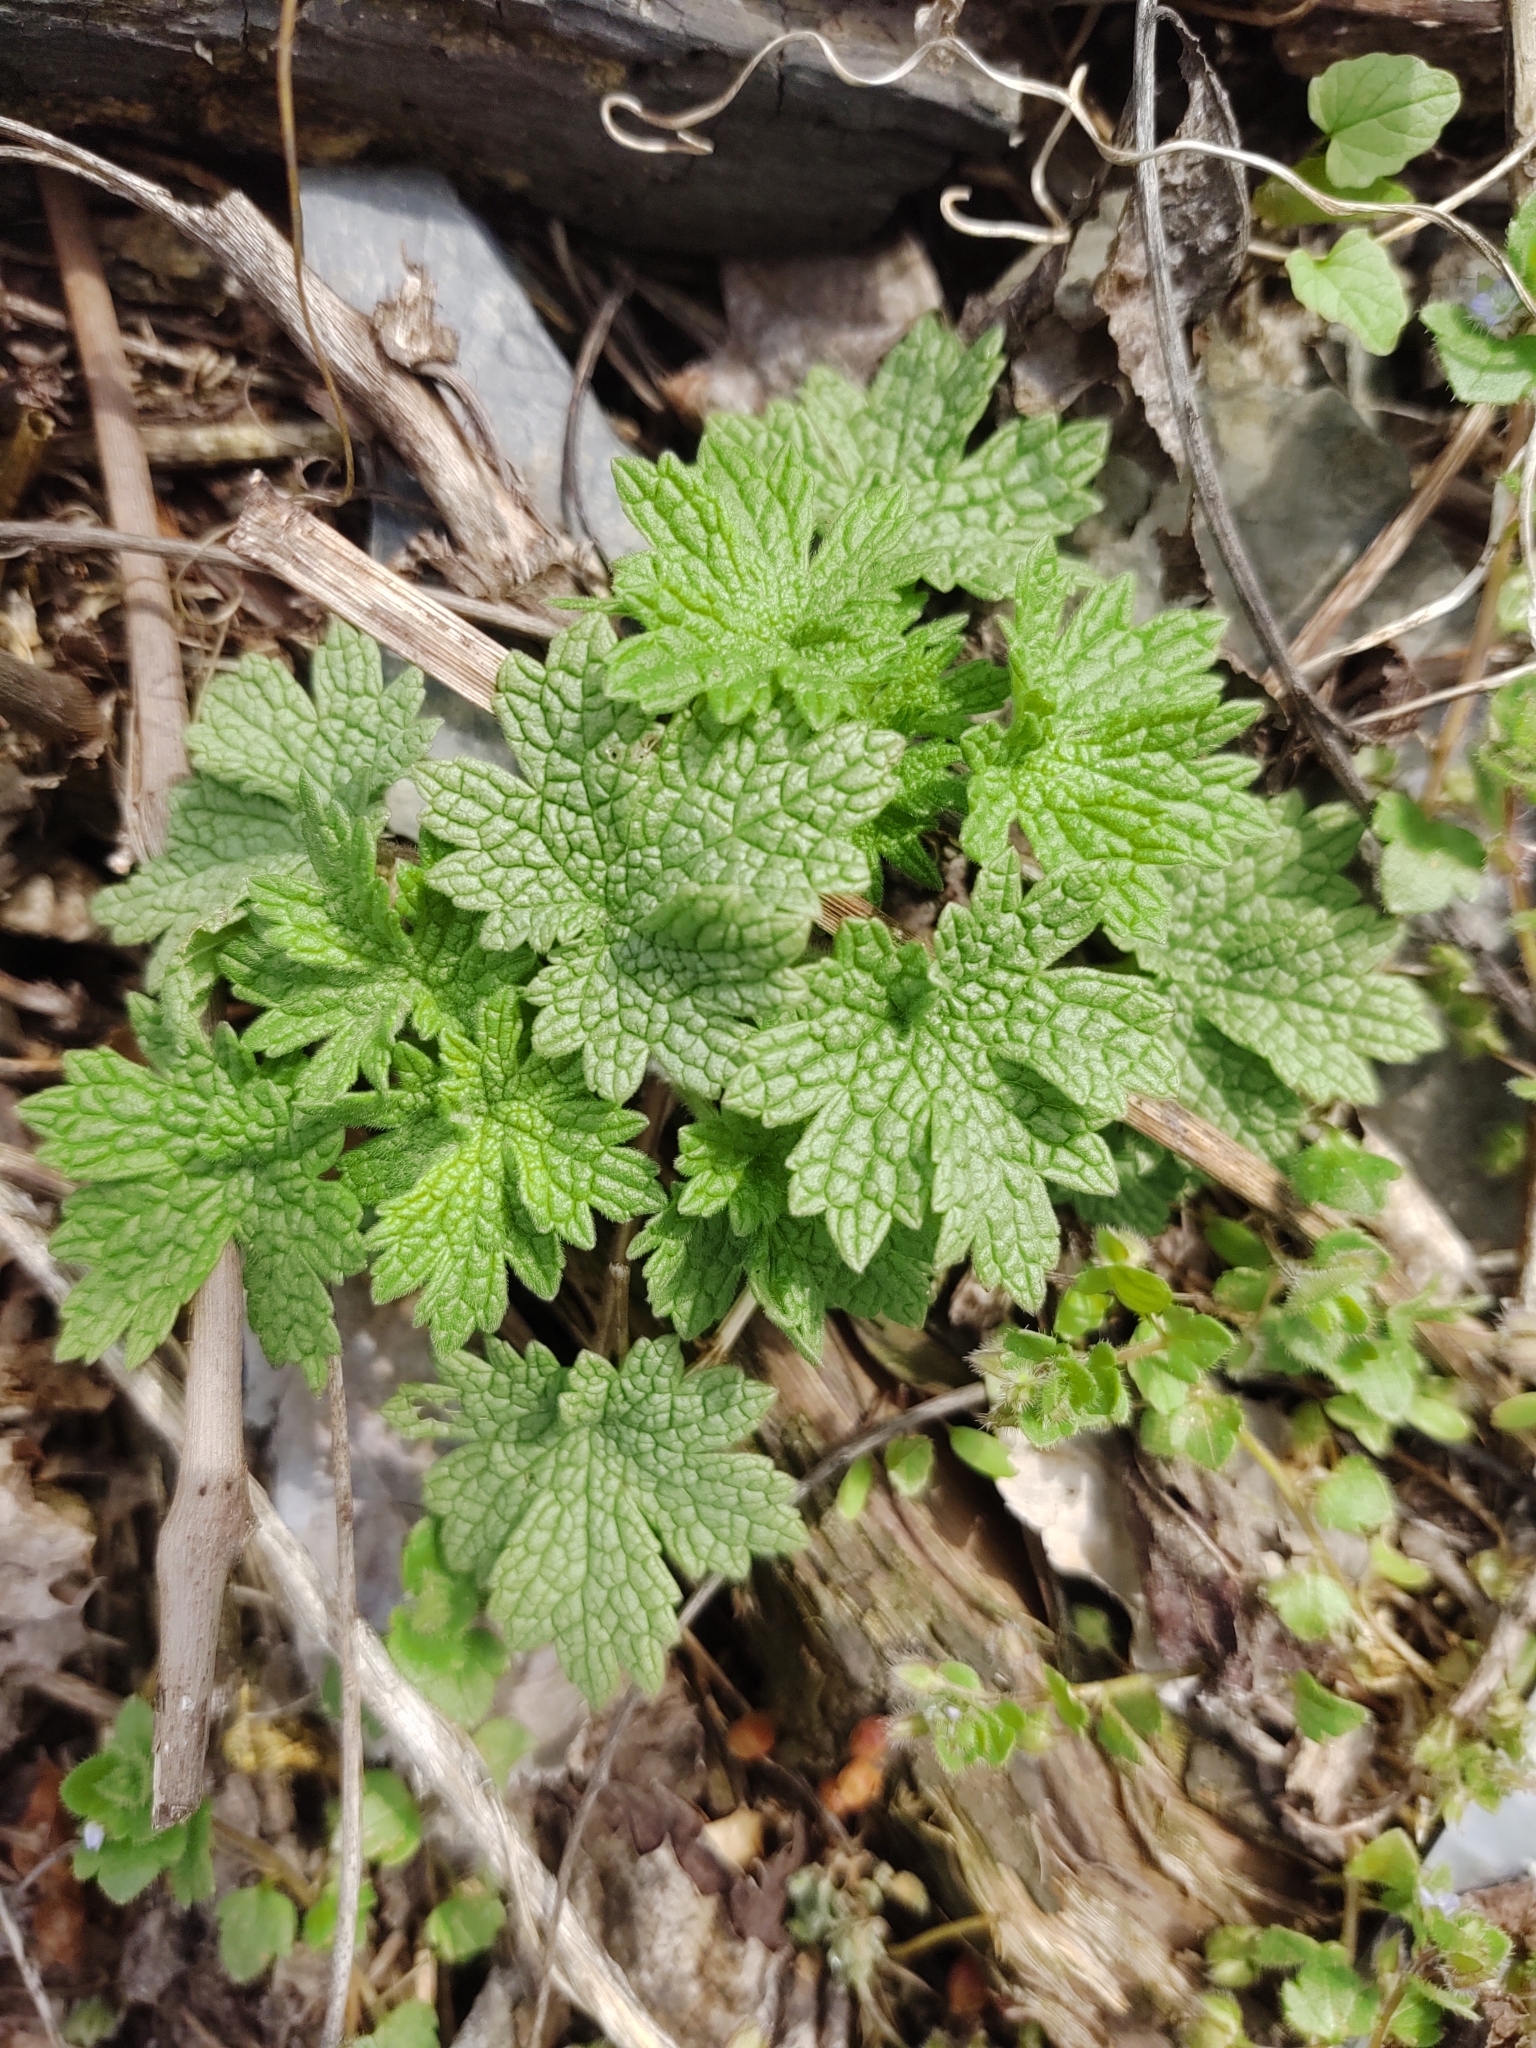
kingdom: Plantae
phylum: Tracheophyta
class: Magnoliopsida
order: Lamiales
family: Lamiaceae
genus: Leonurus
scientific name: Leonurus cardiaca
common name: Motherwort
